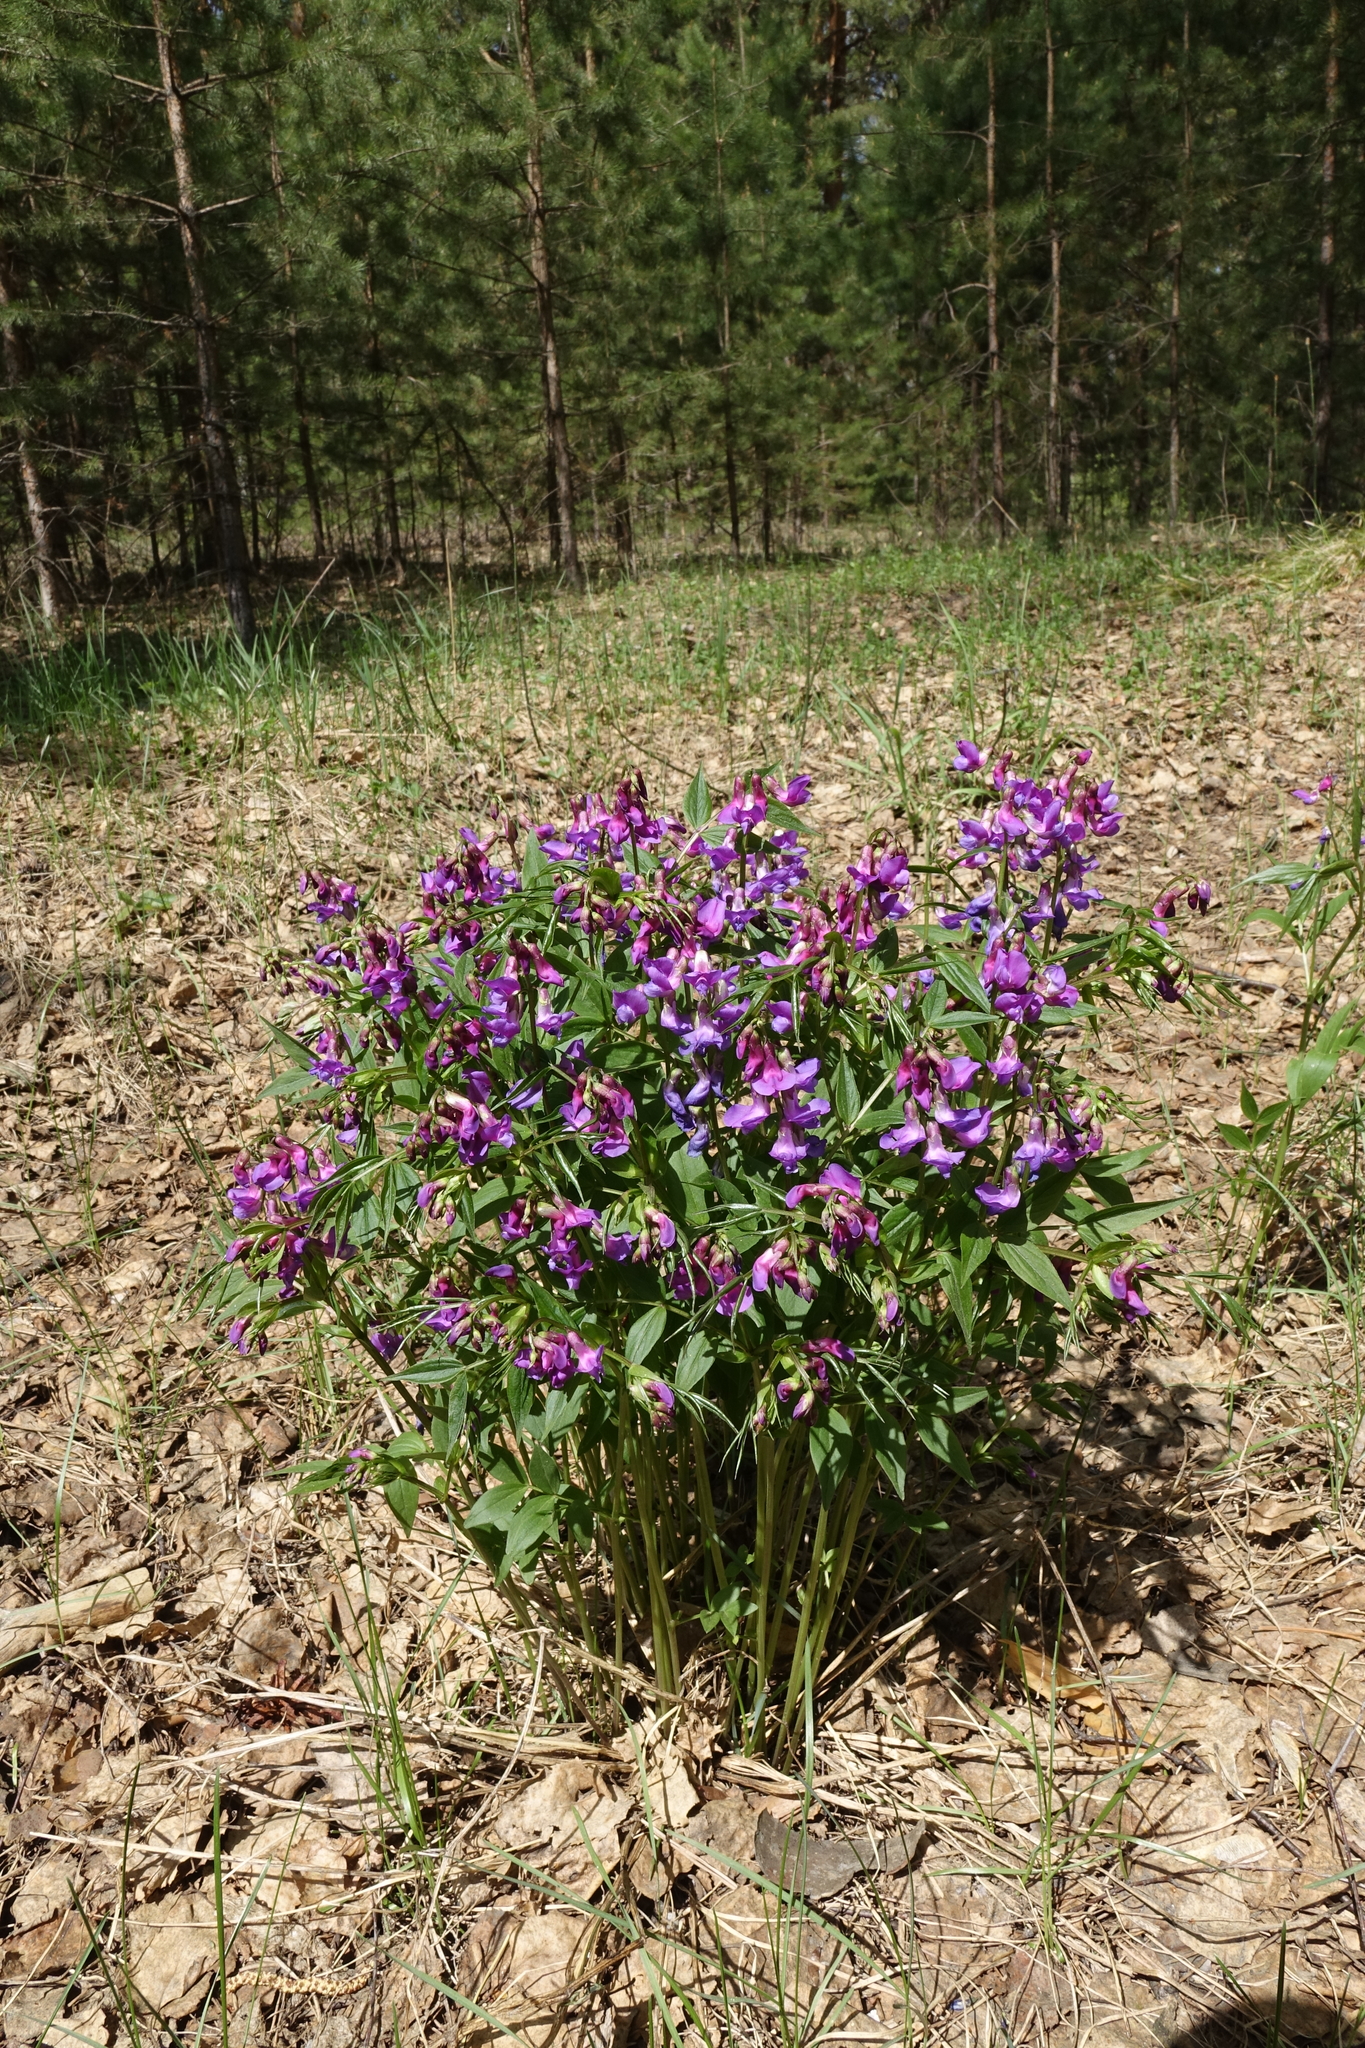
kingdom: Plantae
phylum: Tracheophyta
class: Magnoliopsida
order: Fabales
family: Fabaceae
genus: Lathyrus
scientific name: Lathyrus vernus
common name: Spring pea
